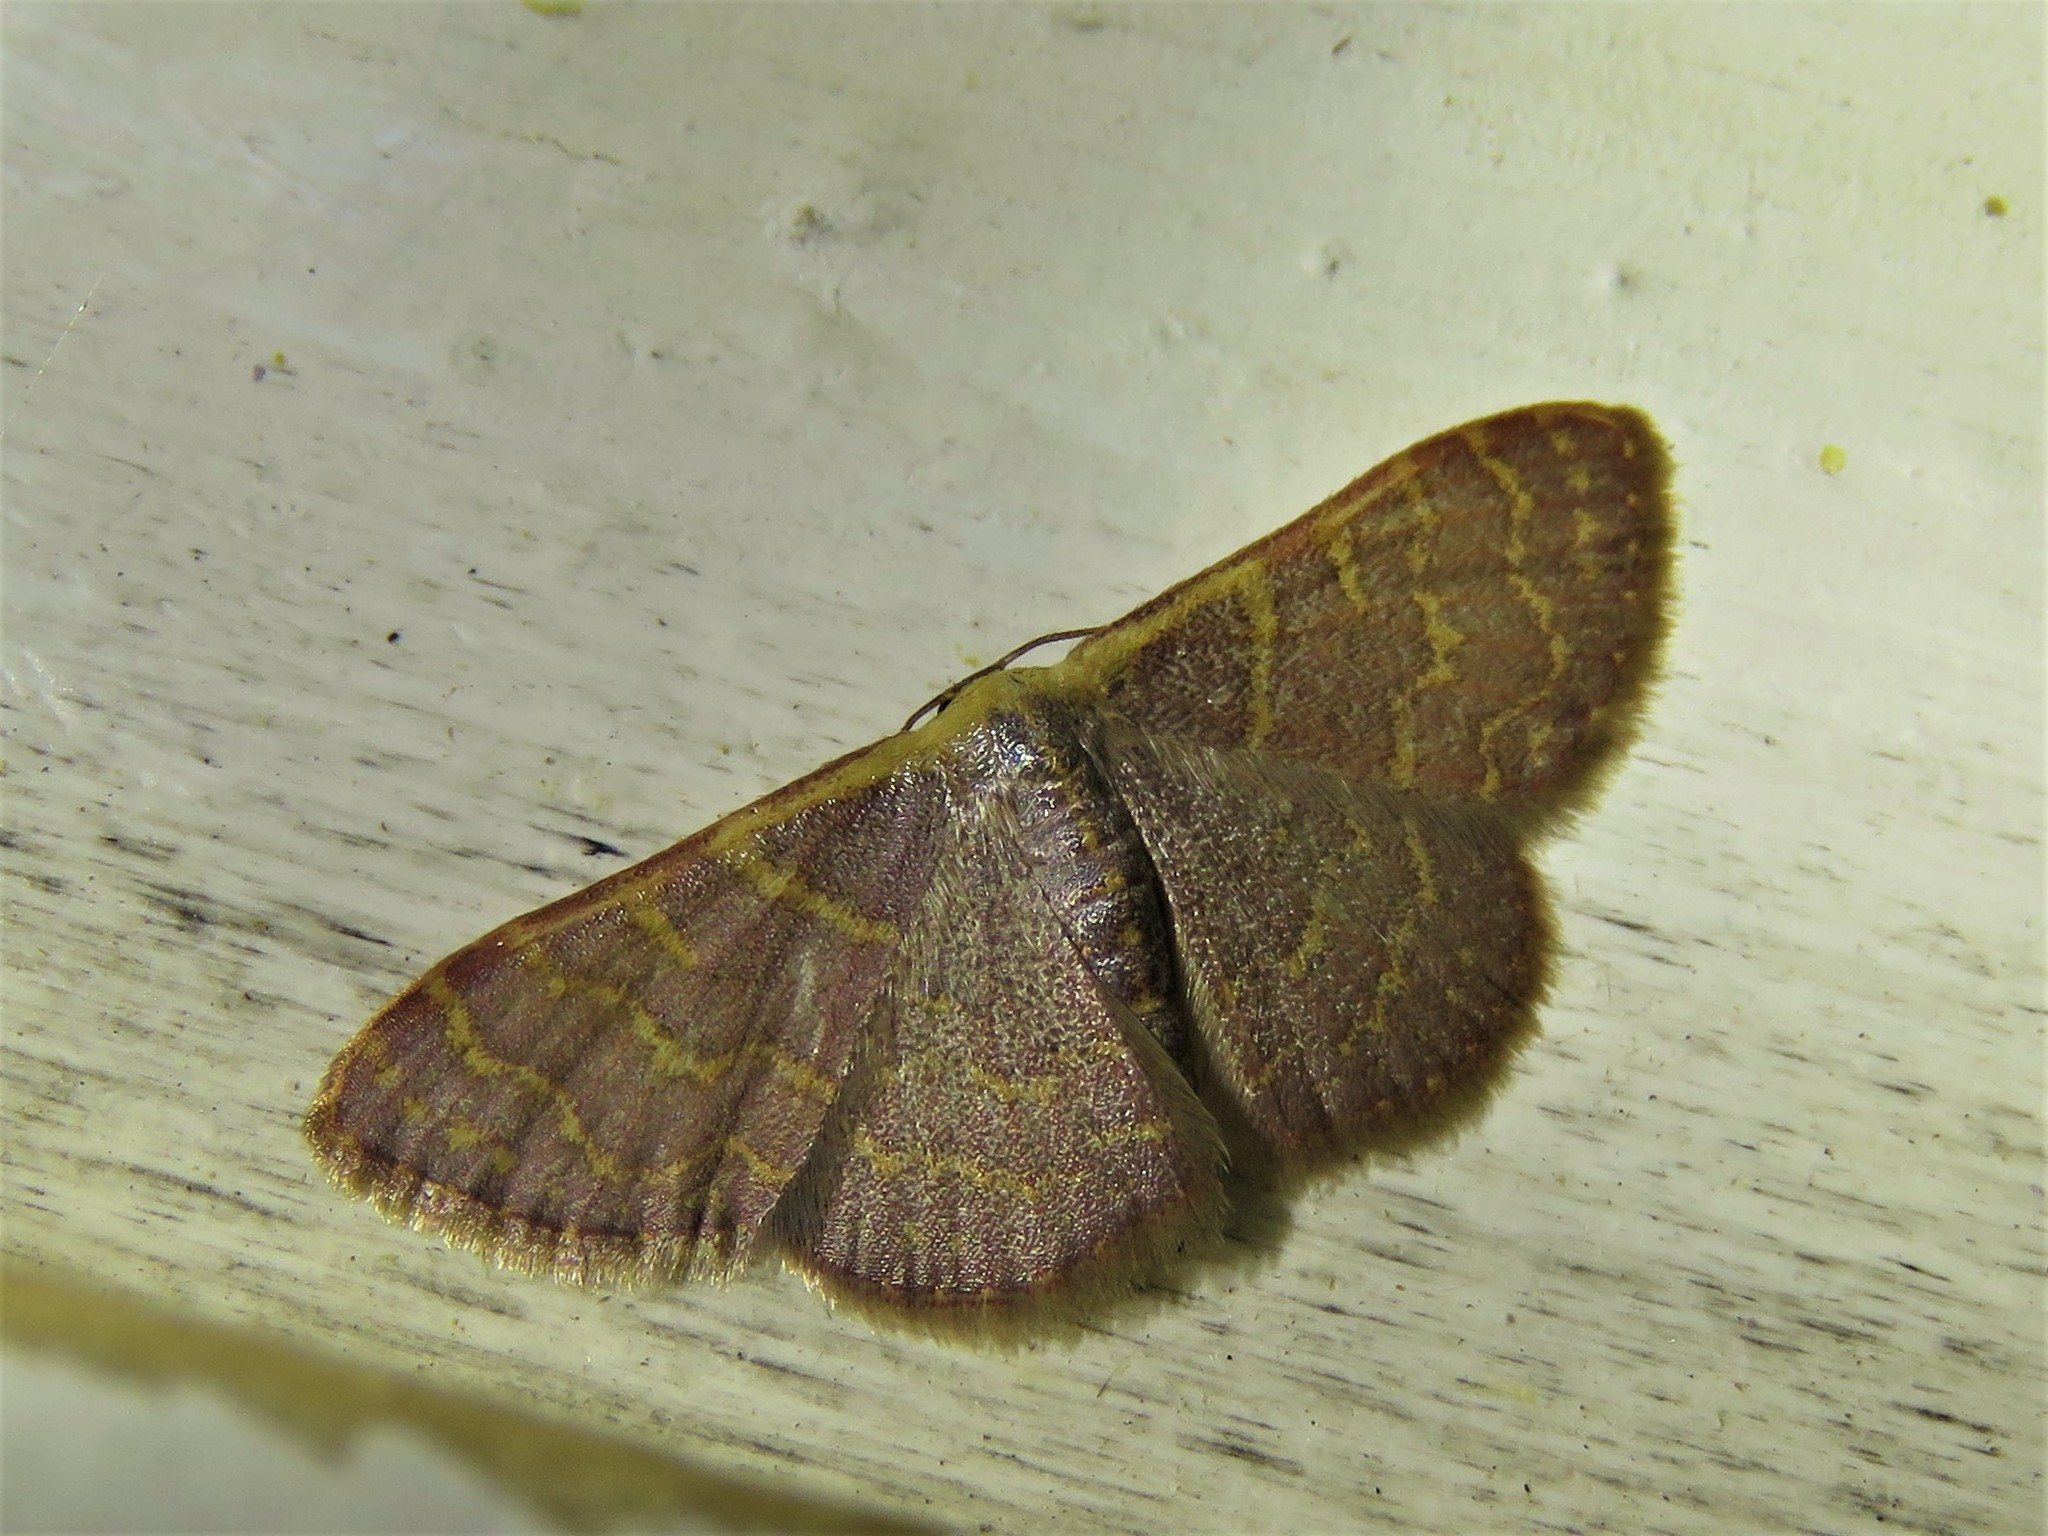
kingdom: Animalia
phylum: Arthropoda
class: Insecta
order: Lepidoptera
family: Geometridae
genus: Leptostales
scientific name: Leptostales pannaria
